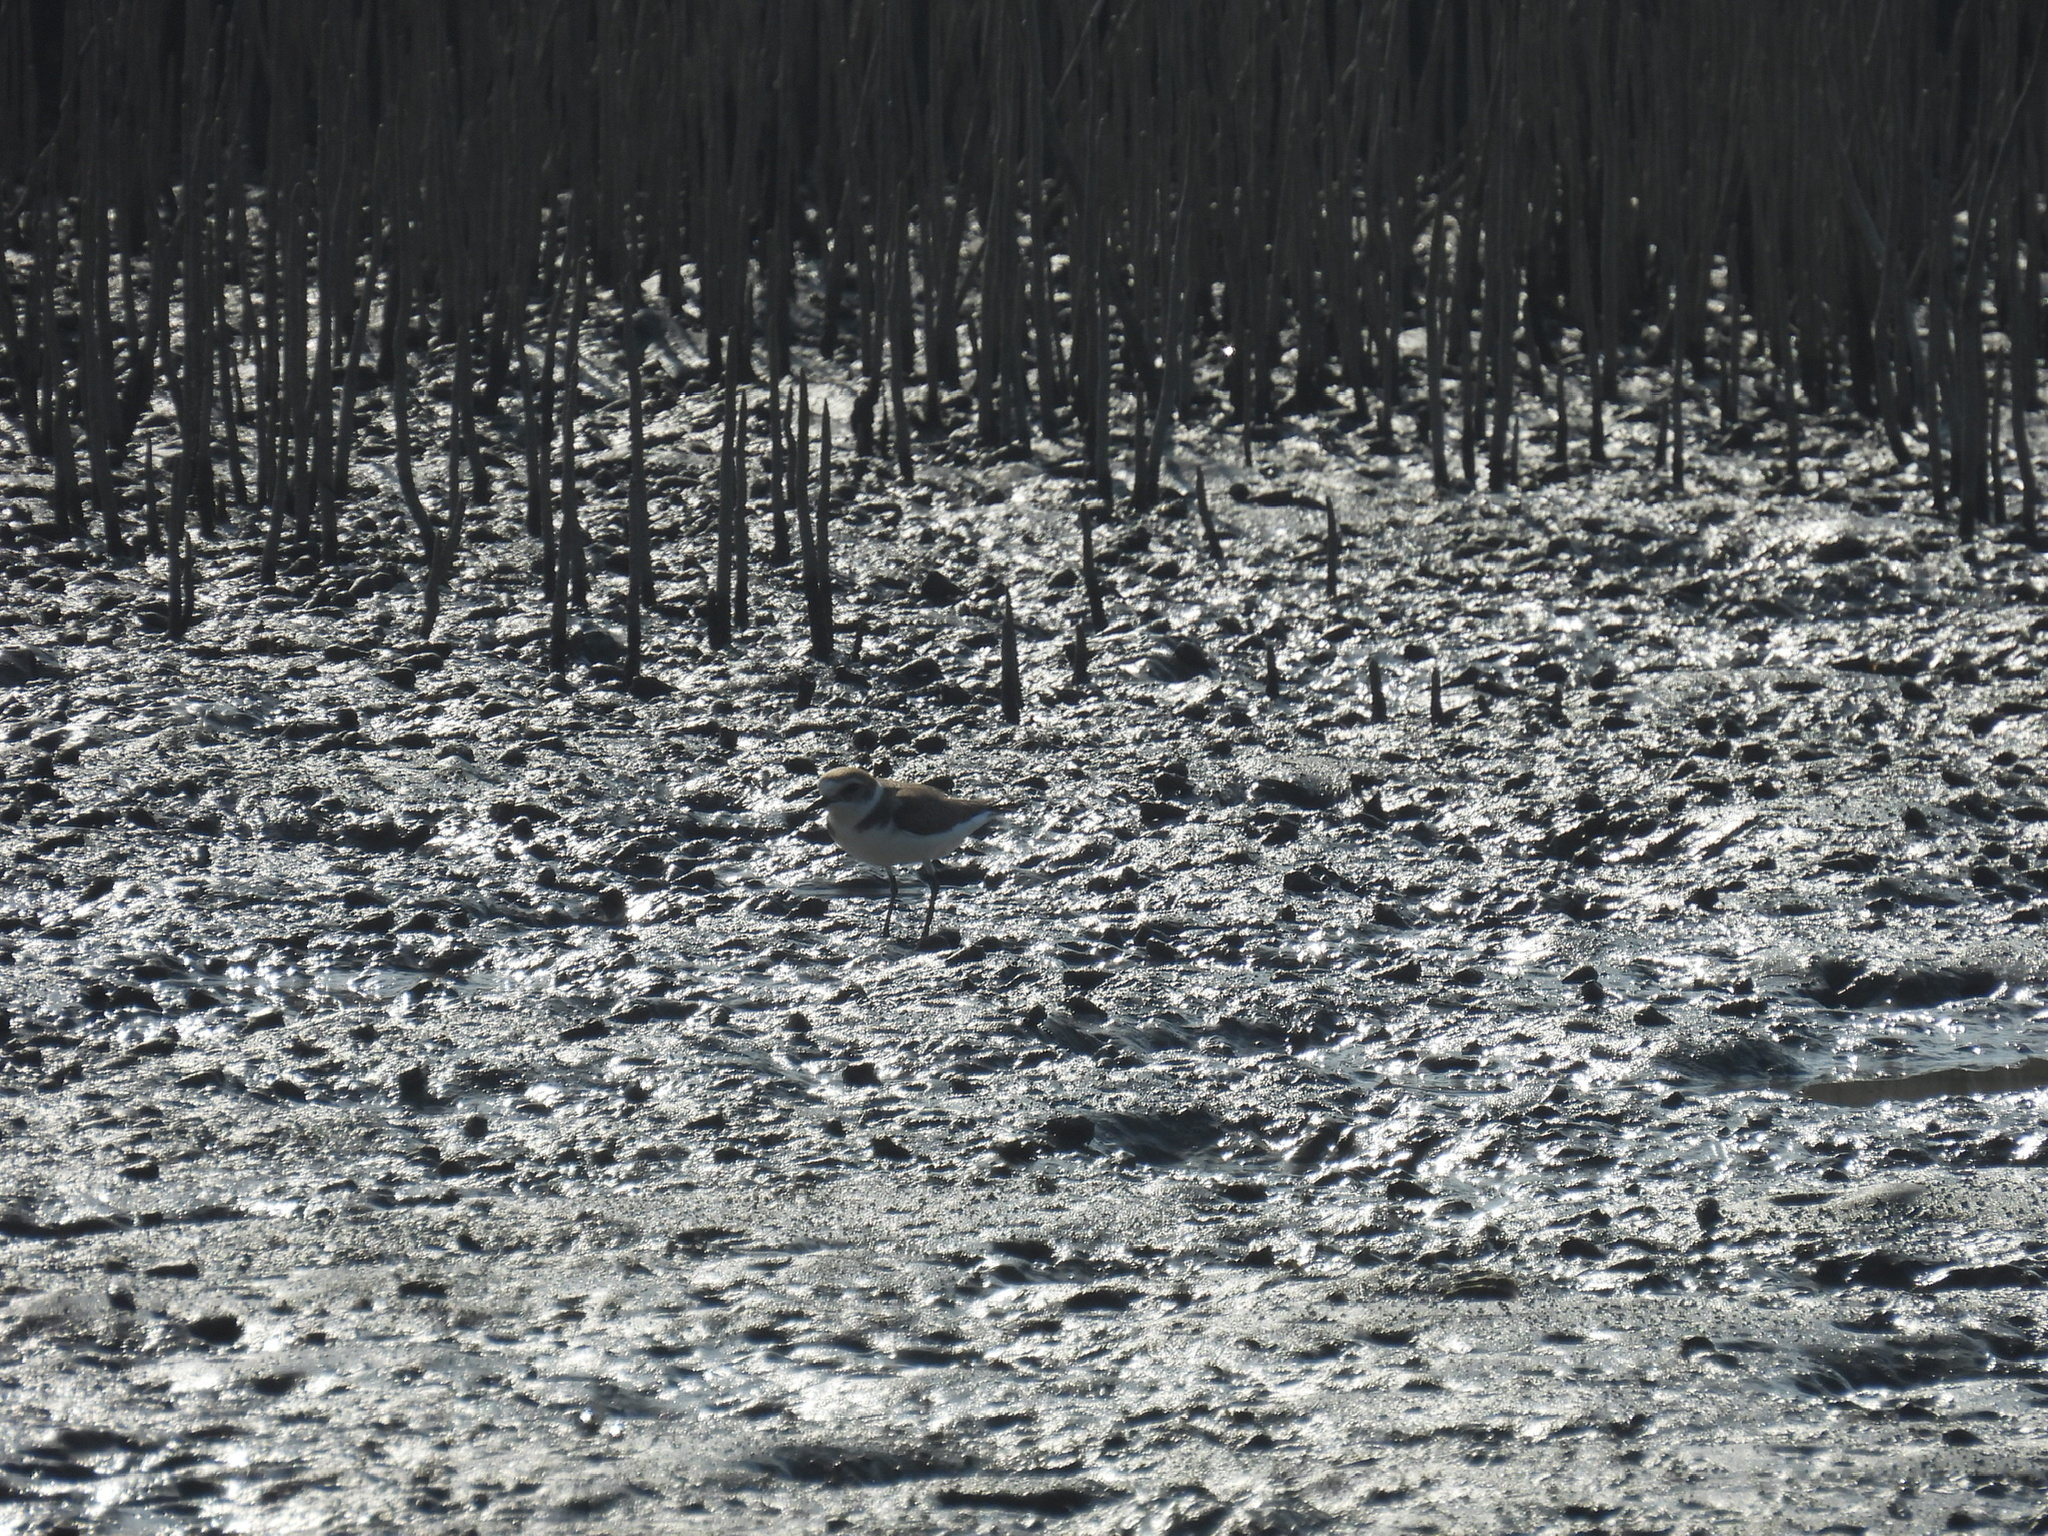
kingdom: Animalia
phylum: Chordata
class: Aves
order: Charadriiformes
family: Charadriidae
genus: Charadrius
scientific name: Charadrius alexandrinus
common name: Kentish plover
